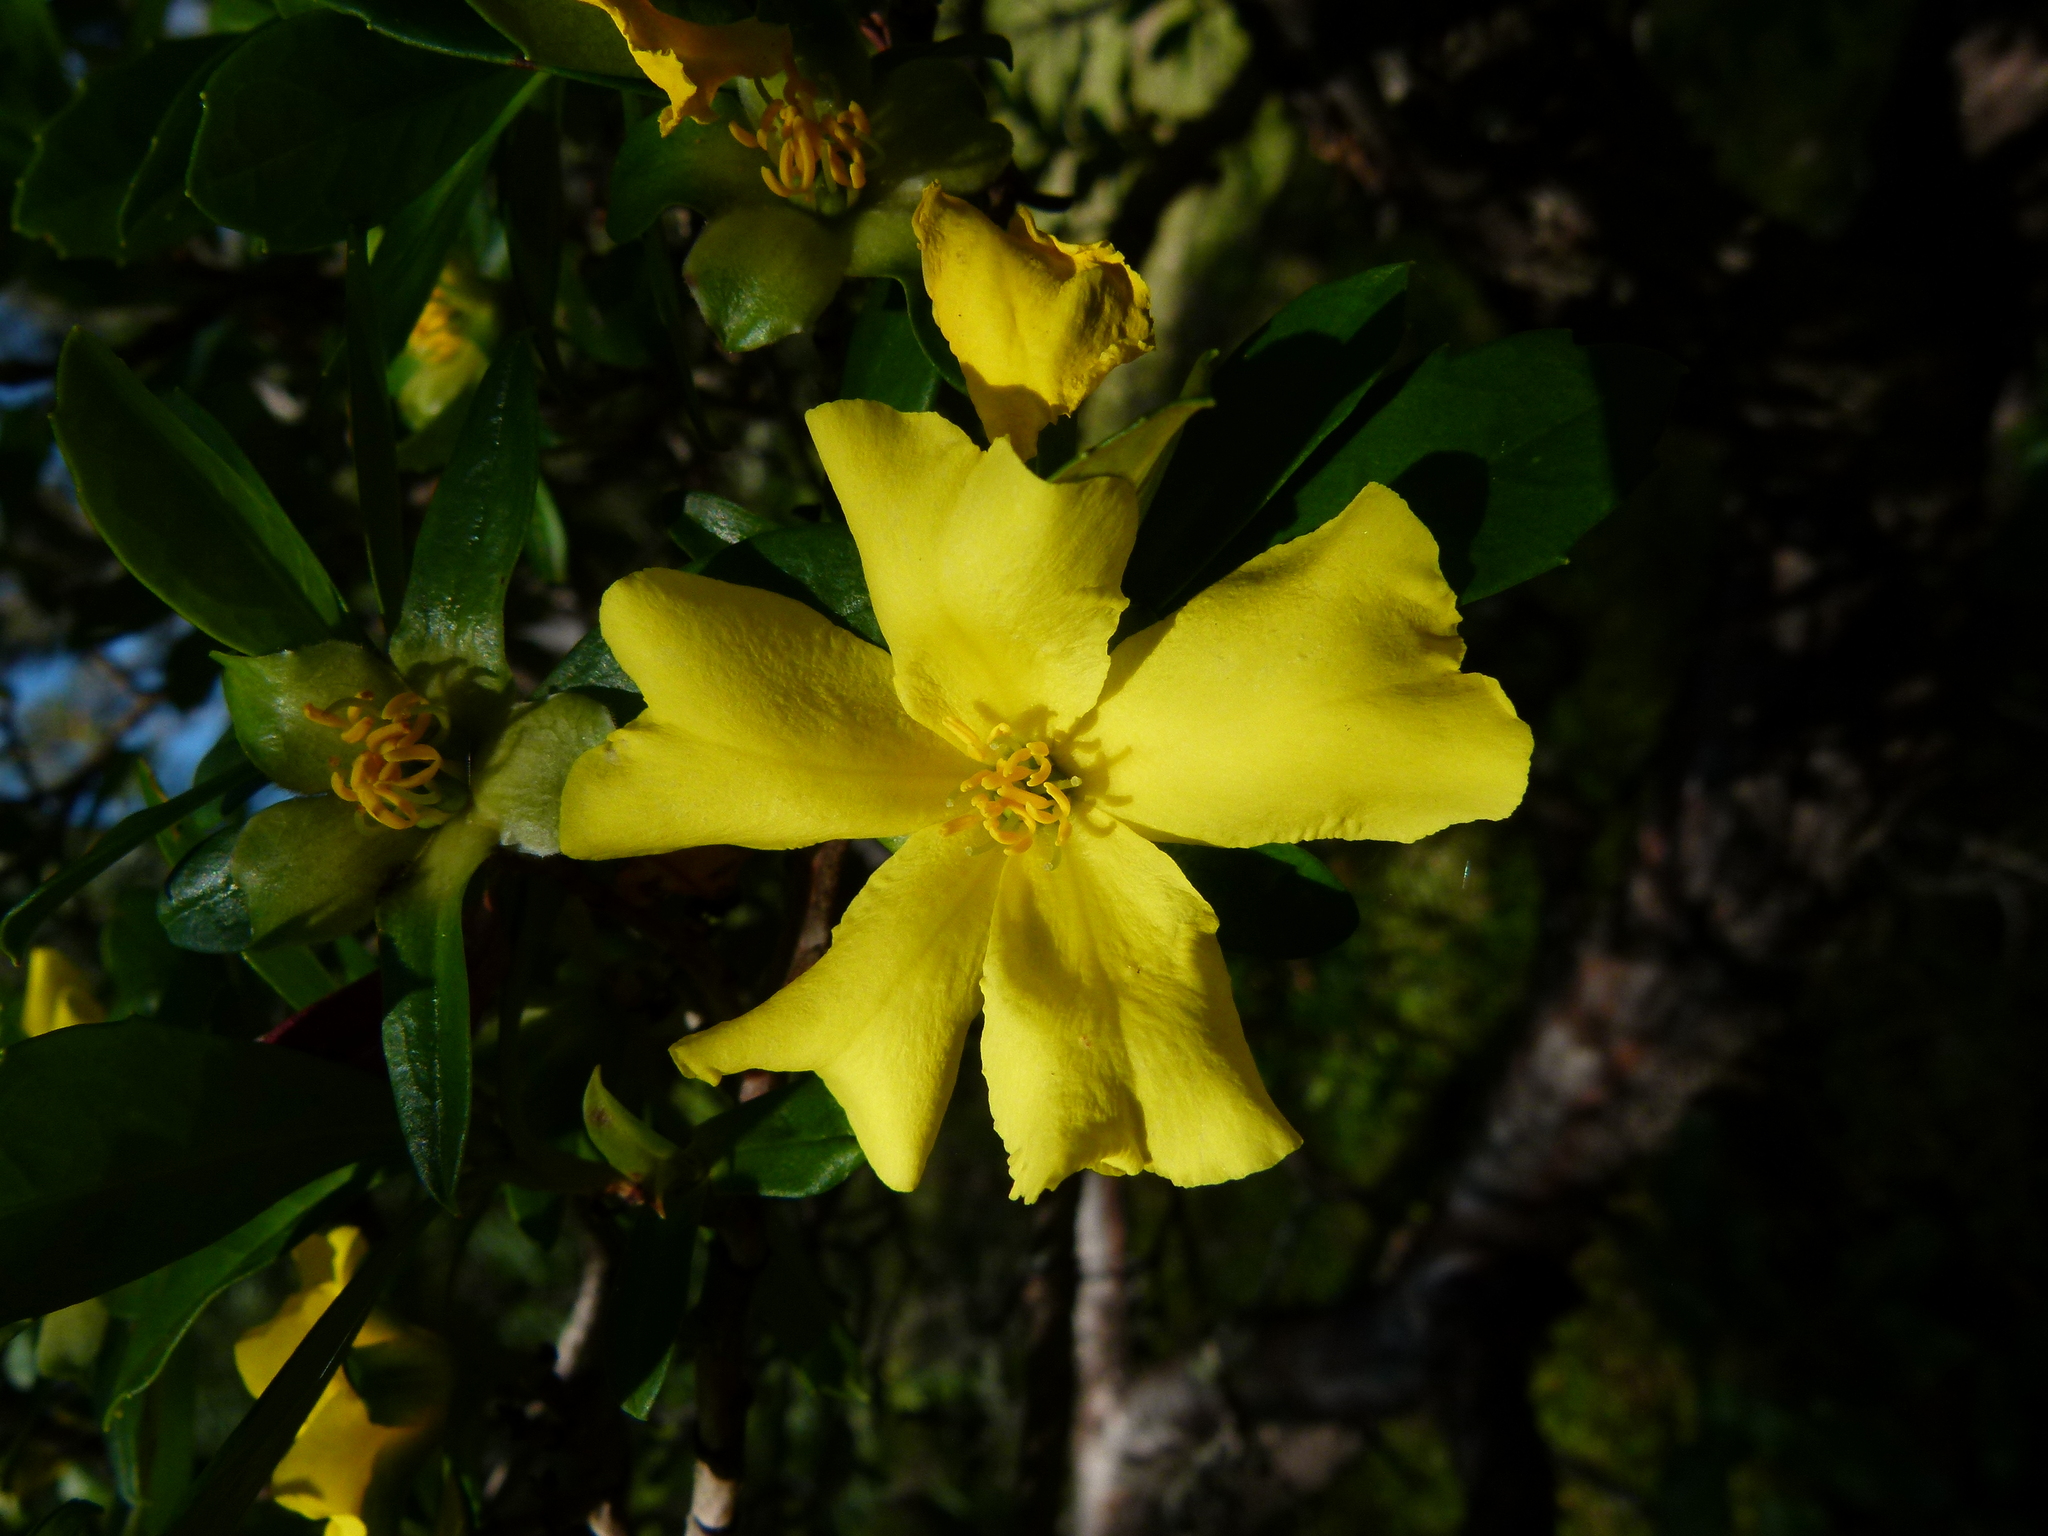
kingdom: Plantae
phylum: Tracheophyta
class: Magnoliopsida
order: Dilleniales
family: Dilleniaceae
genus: Hibbertia
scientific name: Hibbertia cuneiformis
